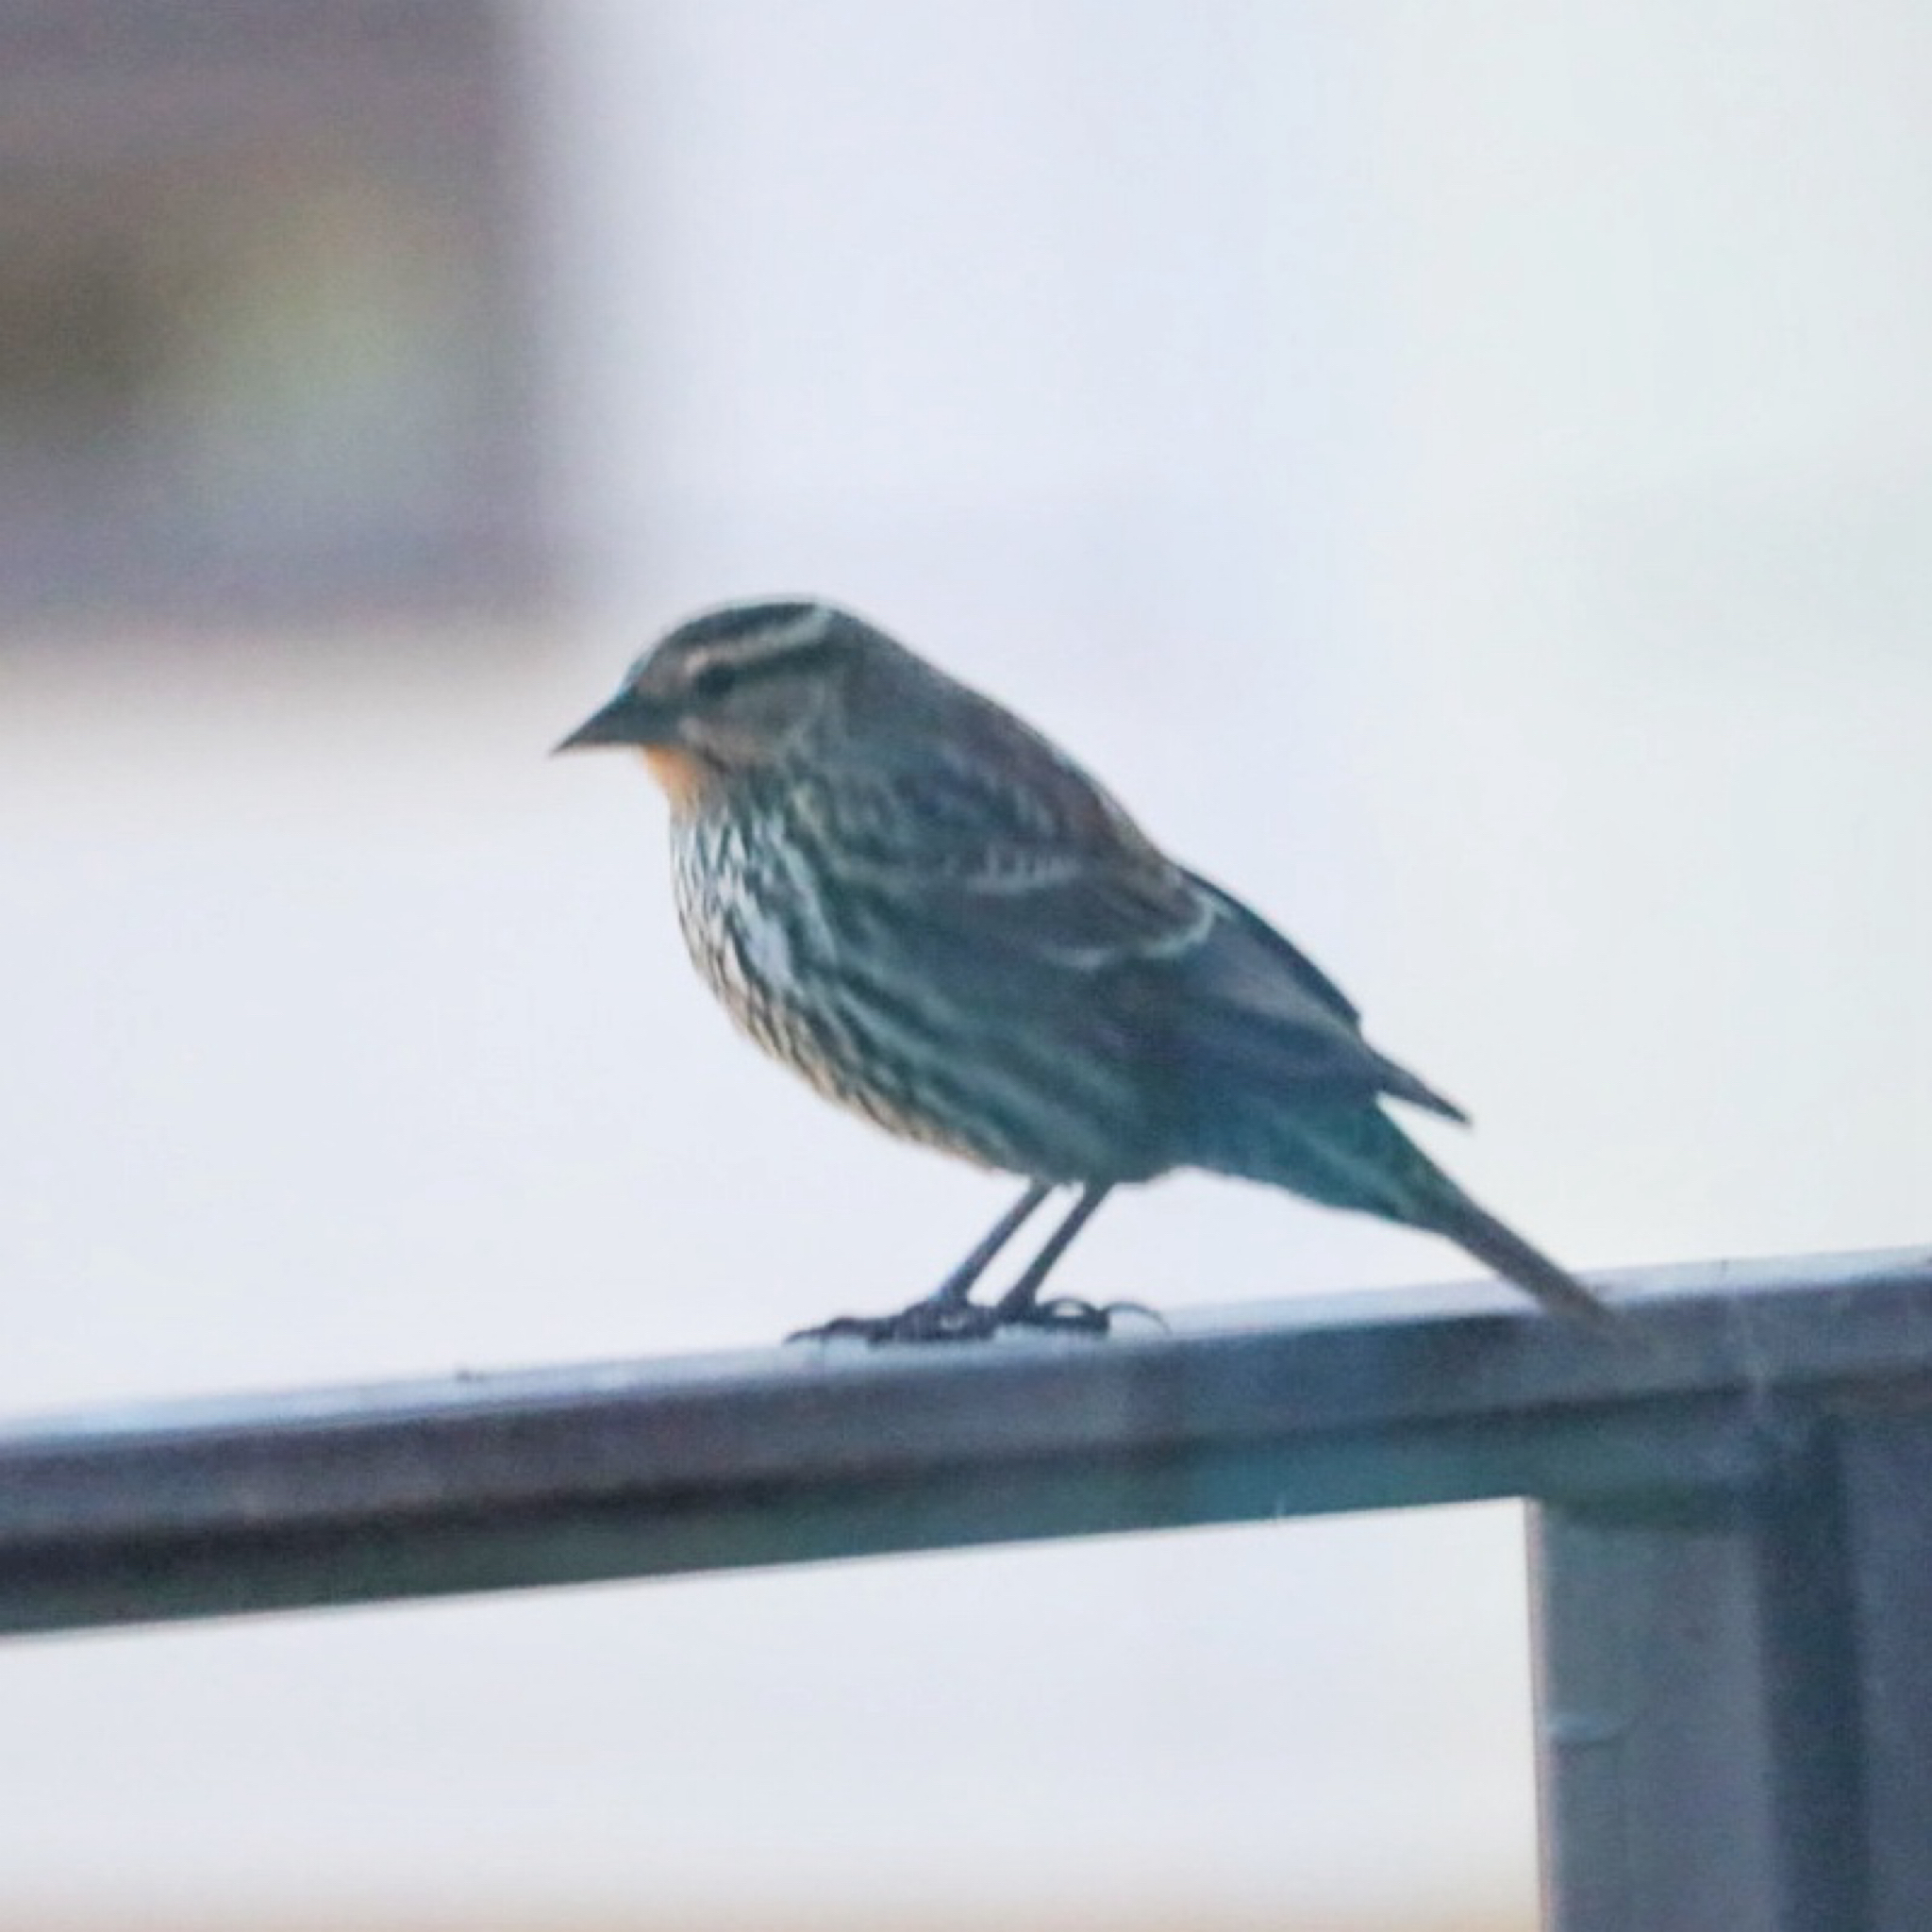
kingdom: Animalia
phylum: Chordata
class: Aves
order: Passeriformes
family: Icteridae
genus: Agelaius
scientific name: Agelaius phoeniceus
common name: Red-winged blackbird
